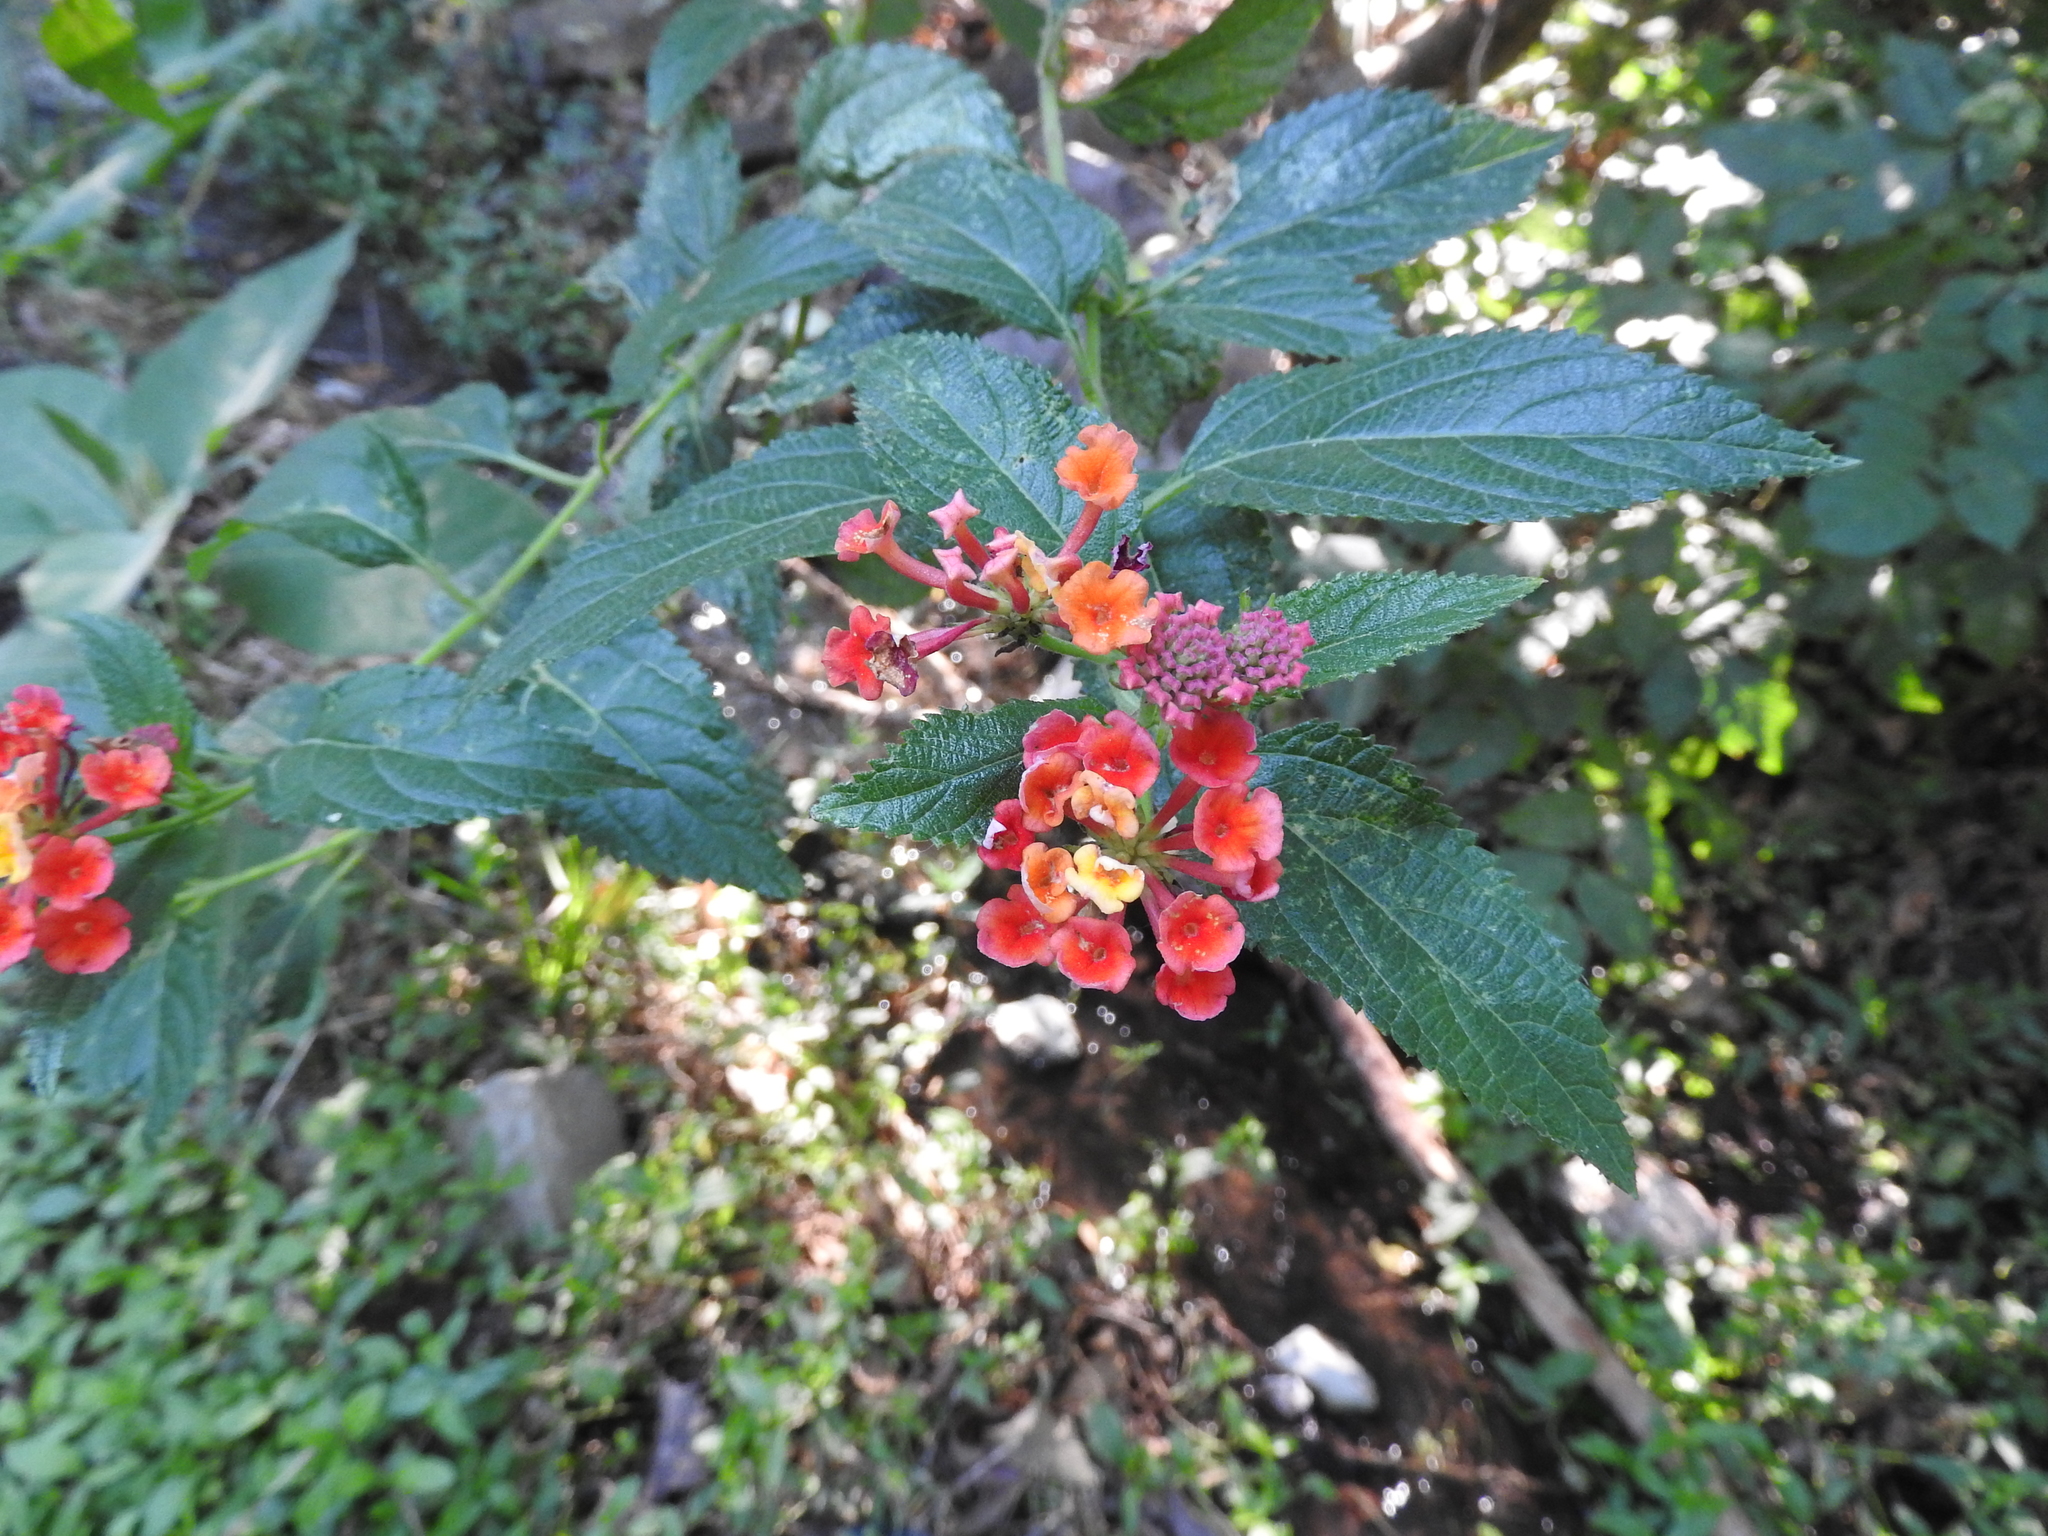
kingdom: Plantae
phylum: Tracheophyta
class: Magnoliopsida
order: Lamiales
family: Verbenaceae
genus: Lantana
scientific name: Lantana camara
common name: Lantana
